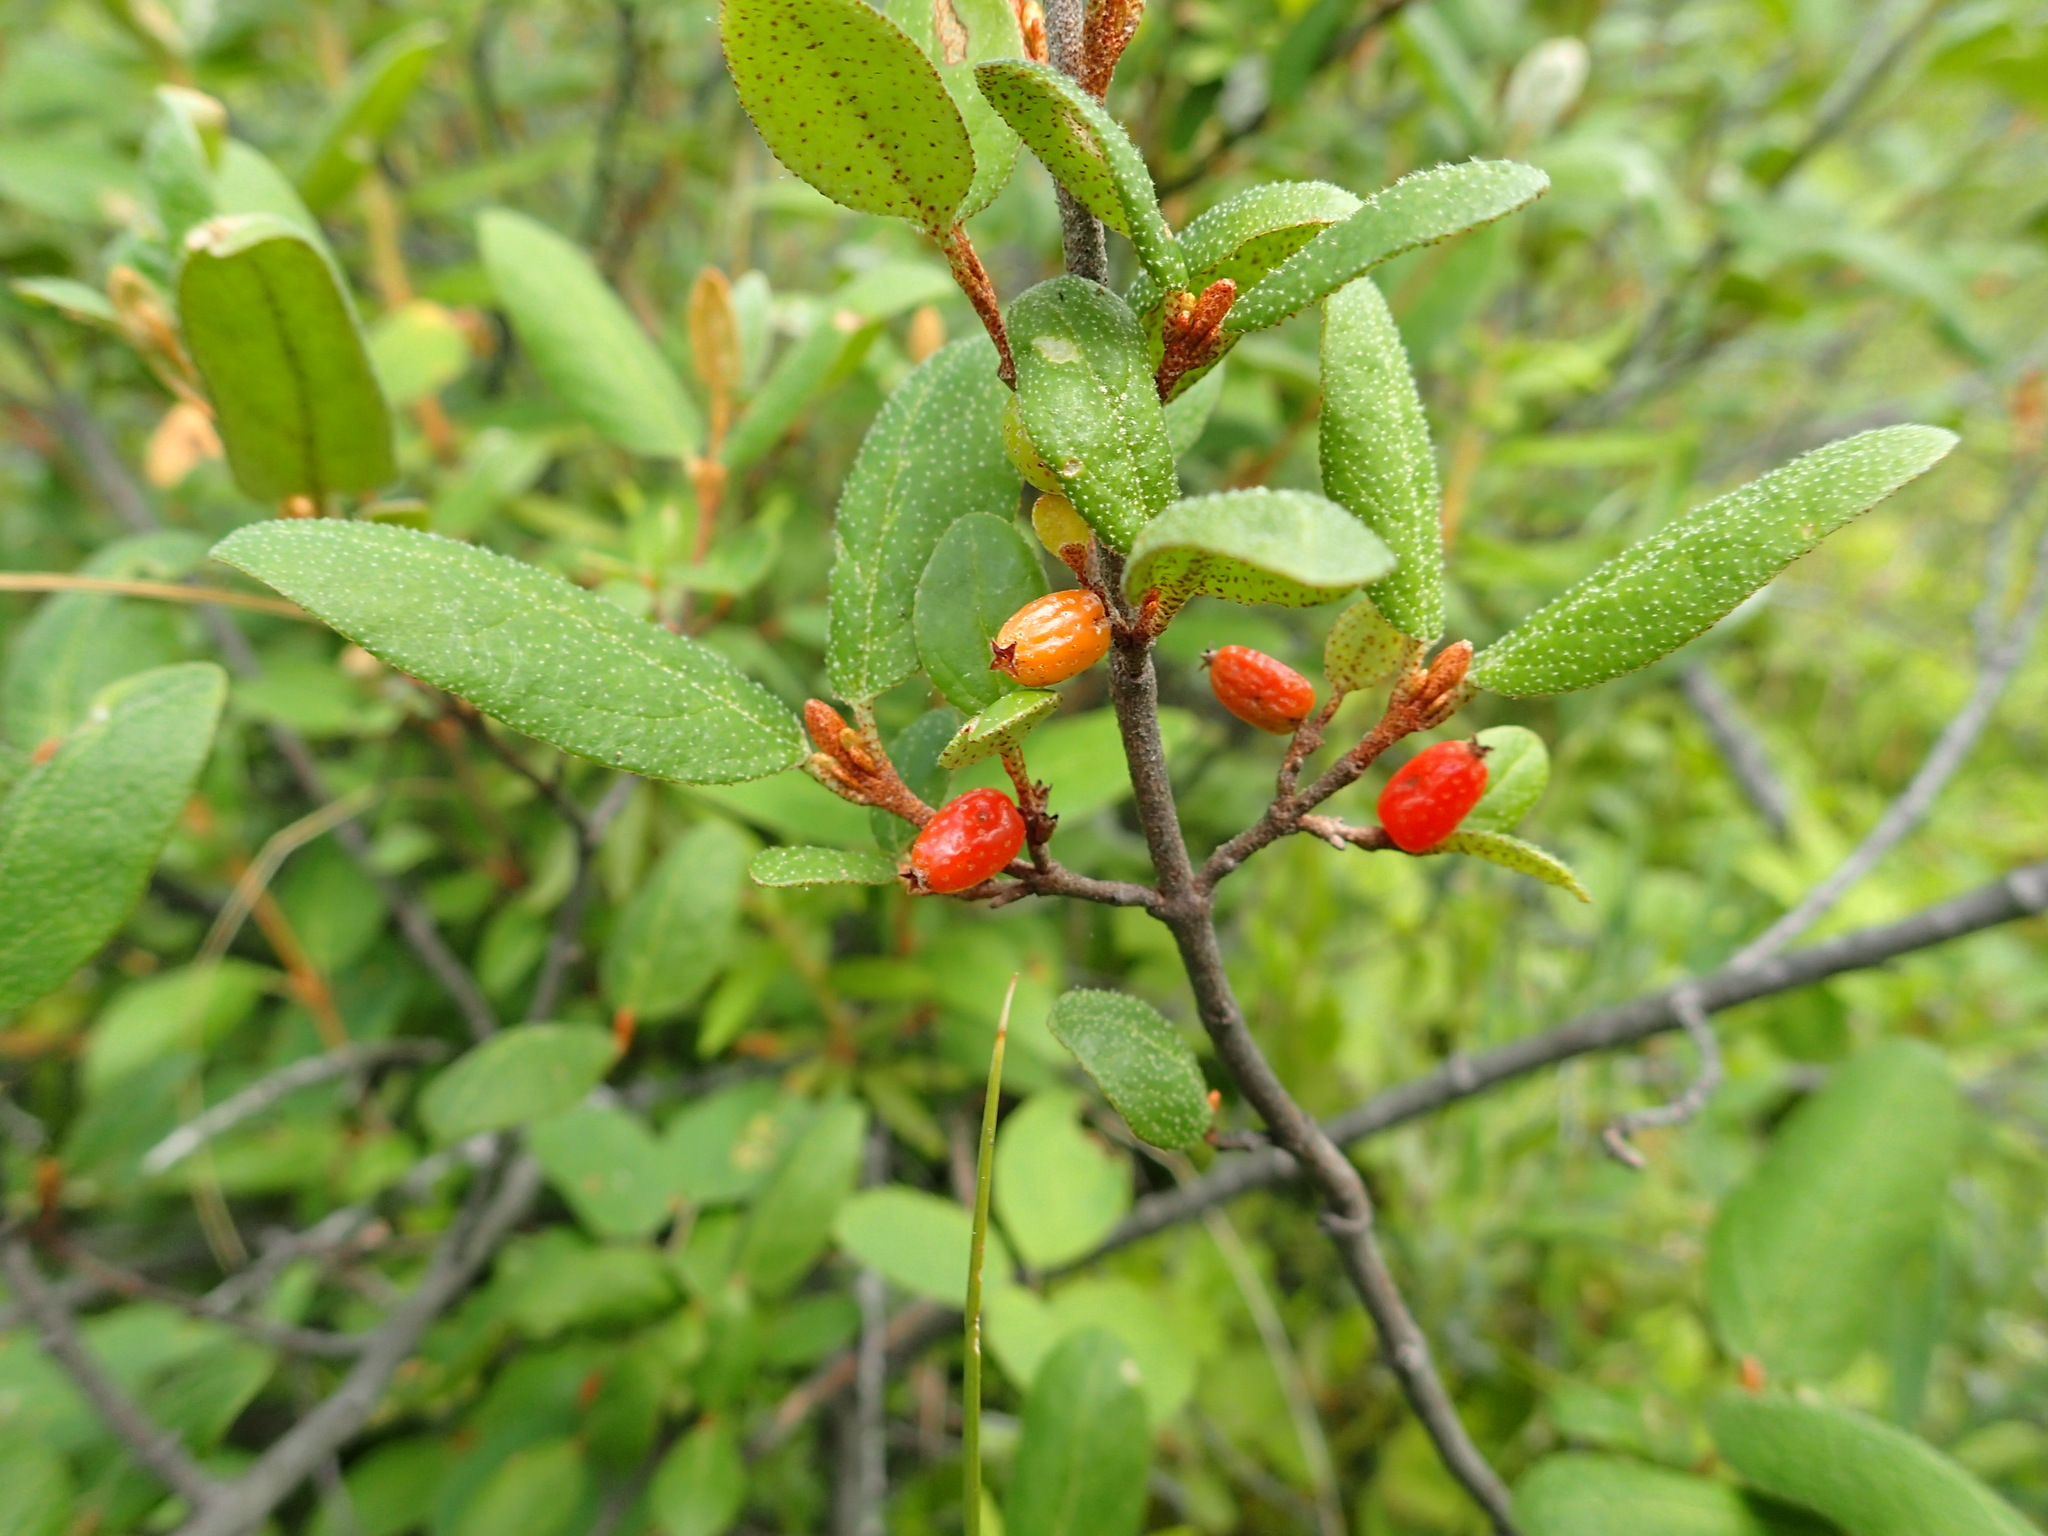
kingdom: Plantae
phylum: Tracheophyta
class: Magnoliopsida
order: Rosales
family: Elaeagnaceae
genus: Shepherdia
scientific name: Shepherdia canadensis
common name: Soapberry
